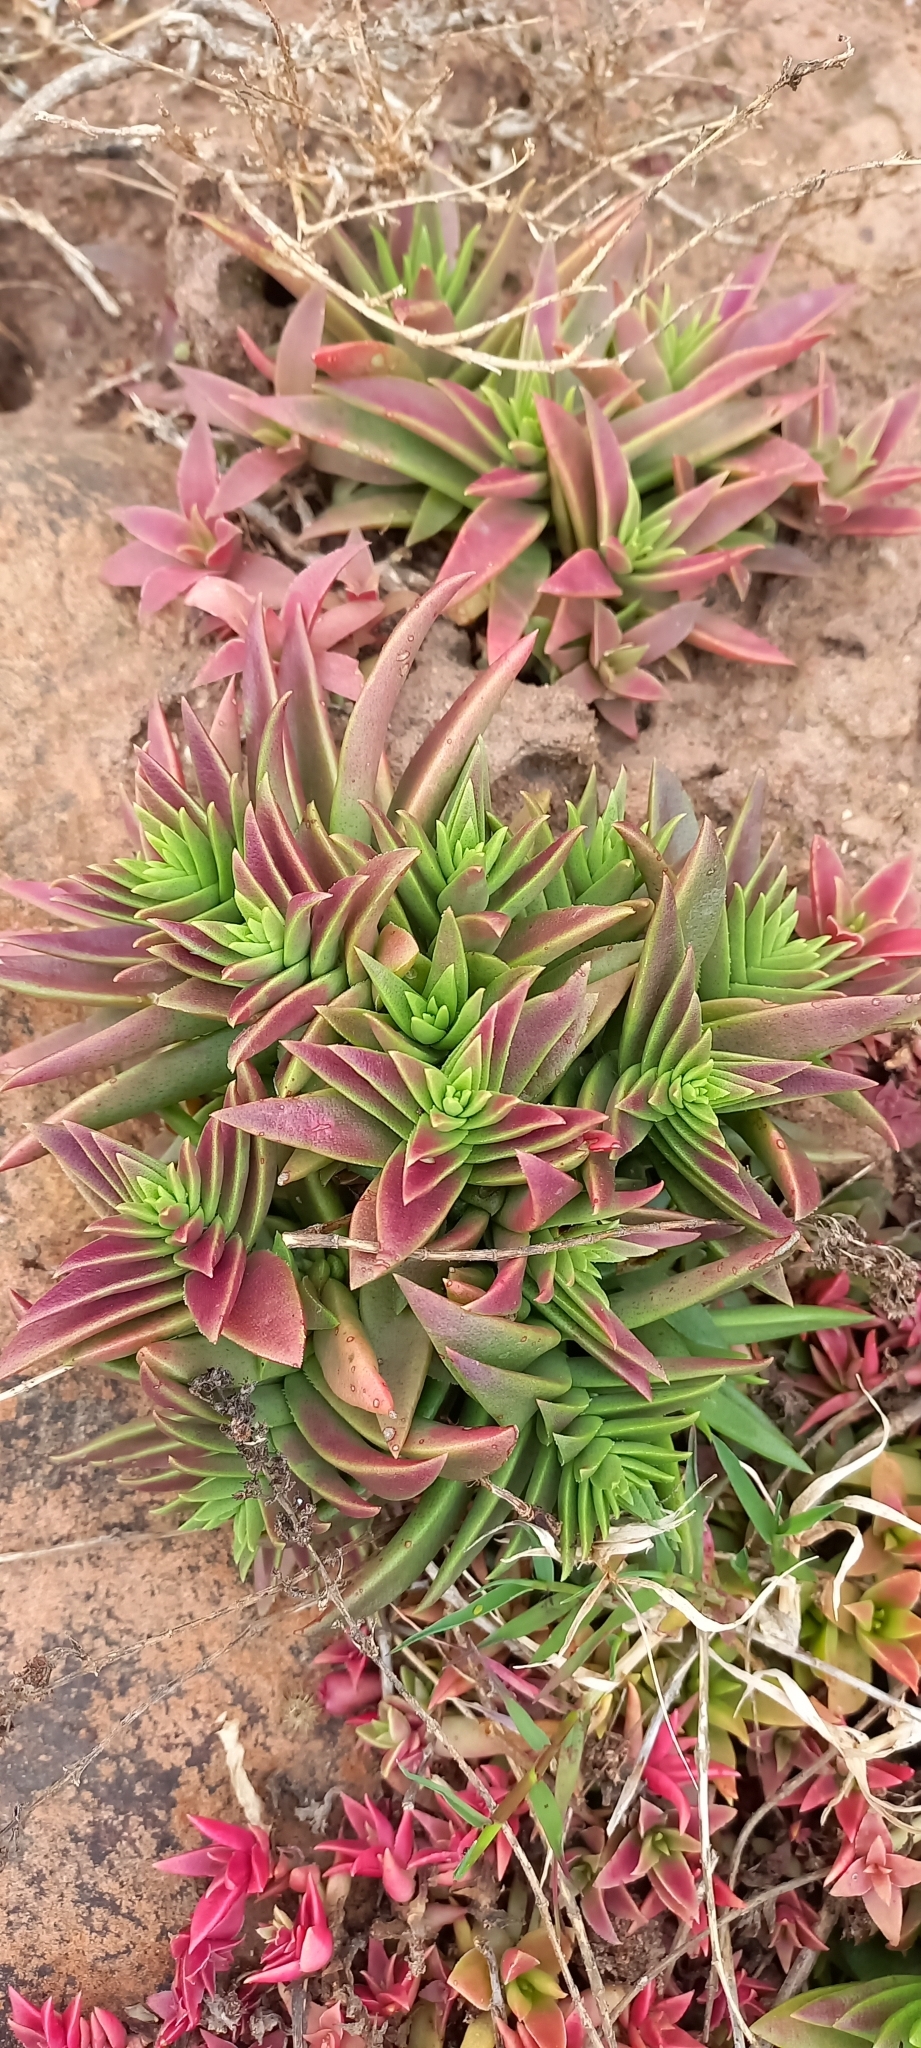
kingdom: Plantae
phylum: Tracheophyta
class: Magnoliopsida
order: Saxifragales
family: Crassulaceae
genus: Crassula
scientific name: Crassula capitella
